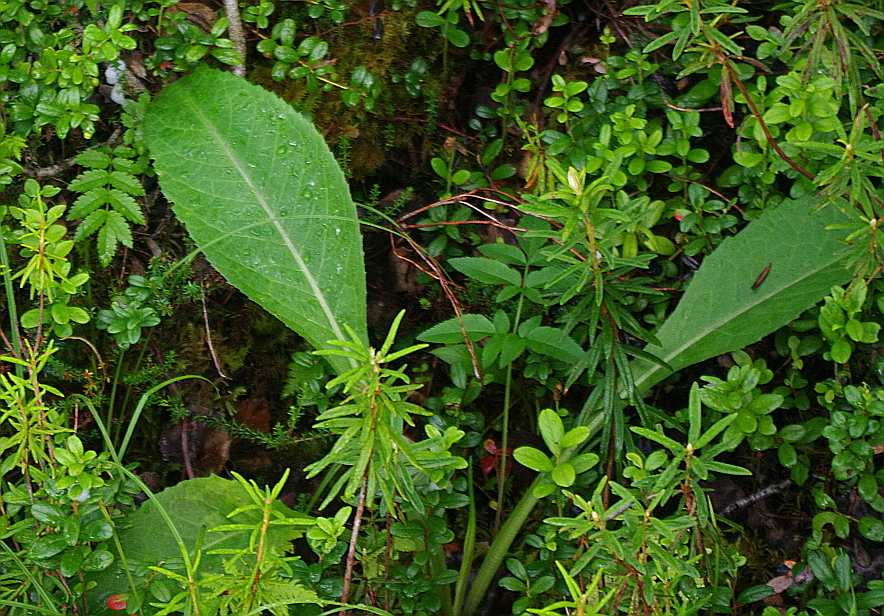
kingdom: Plantae
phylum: Tracheophyta
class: Magnoliopsida
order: Asterales
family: Asteraceae
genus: Solidago
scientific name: Solidago virgaurea
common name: Goldenrod
